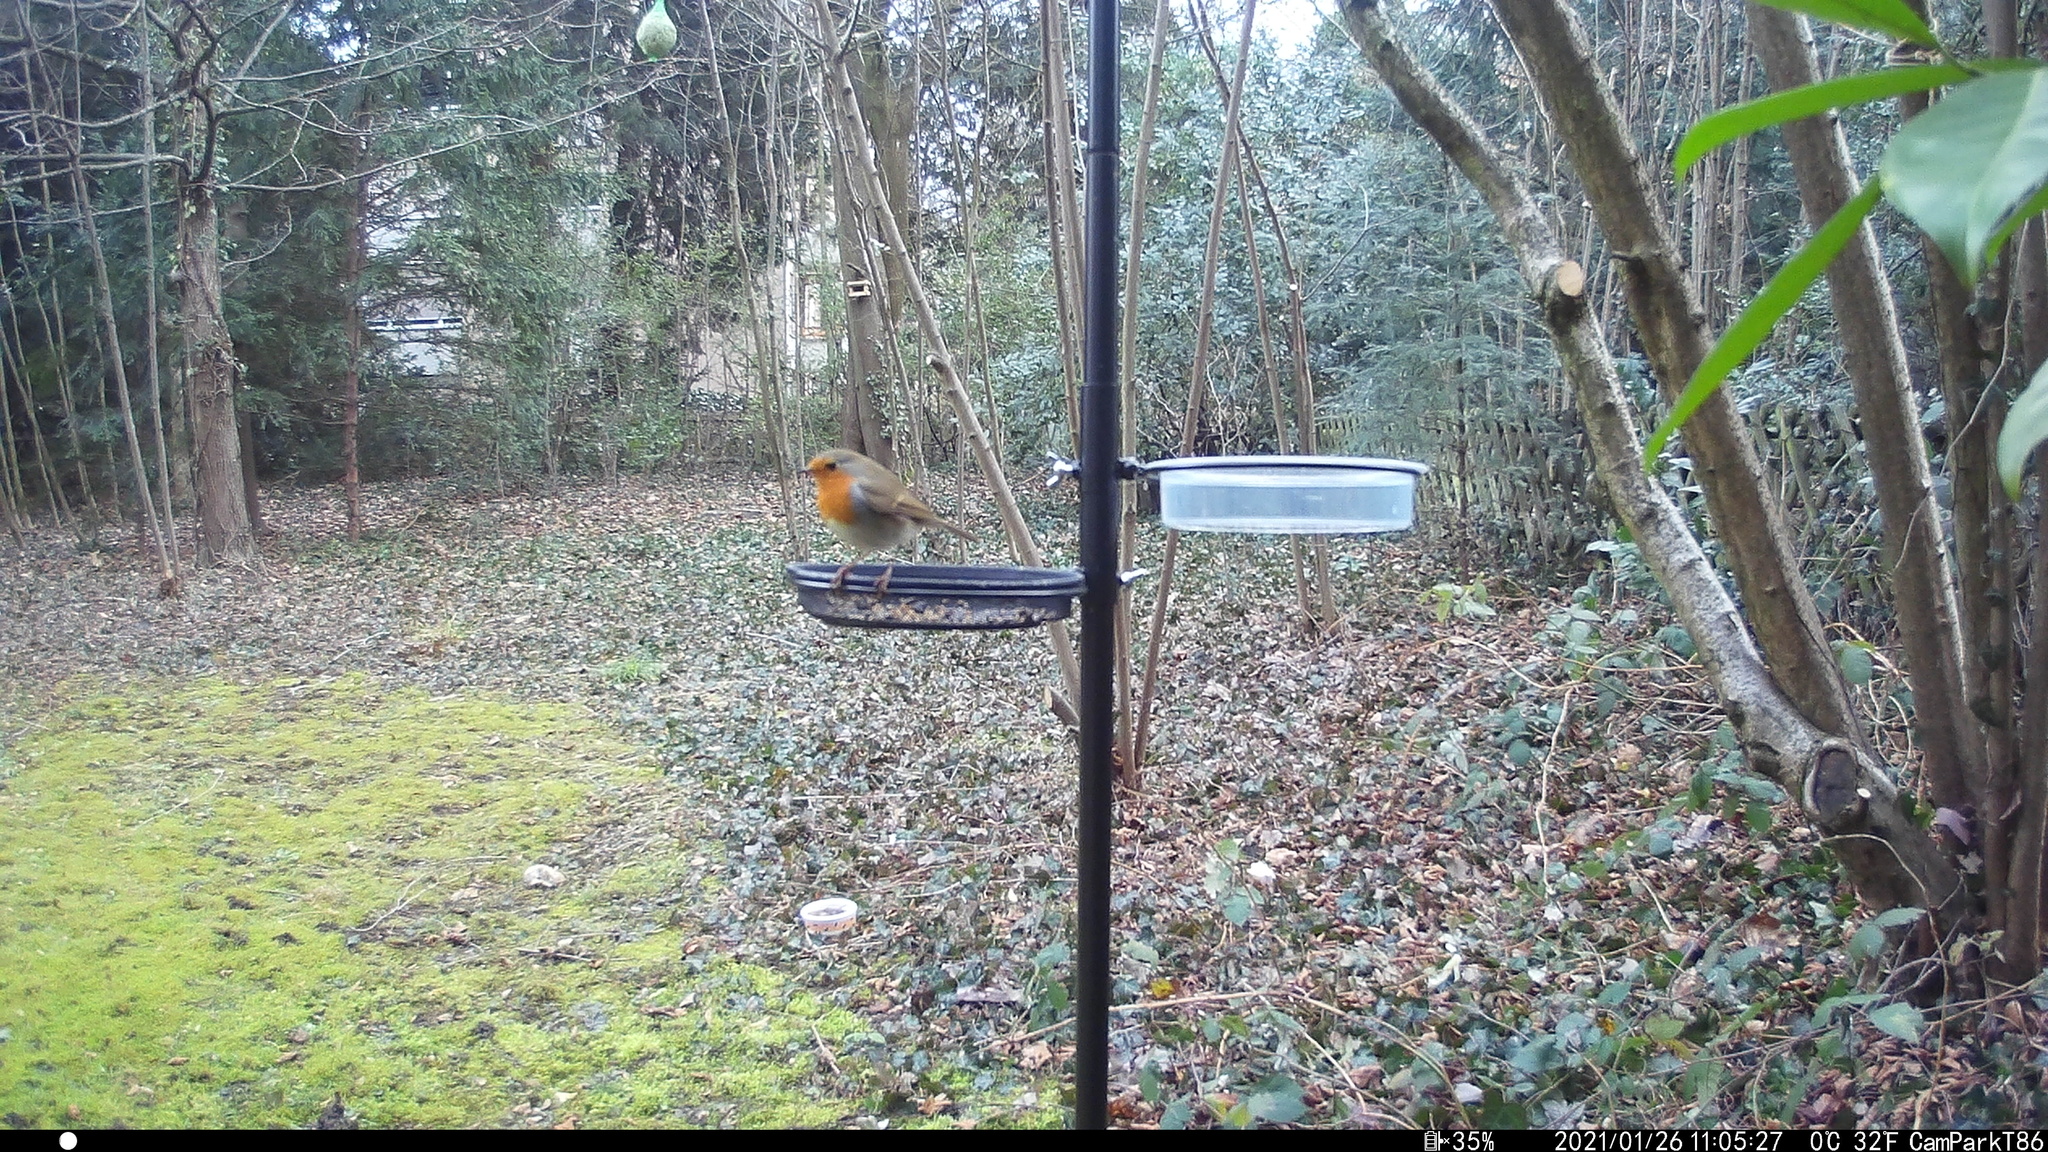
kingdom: Animalia
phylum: Chordata
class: Aves
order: Passeriformes
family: Muscicapidae
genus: Erithacus
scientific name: Erithacus rubecula
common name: European robin
